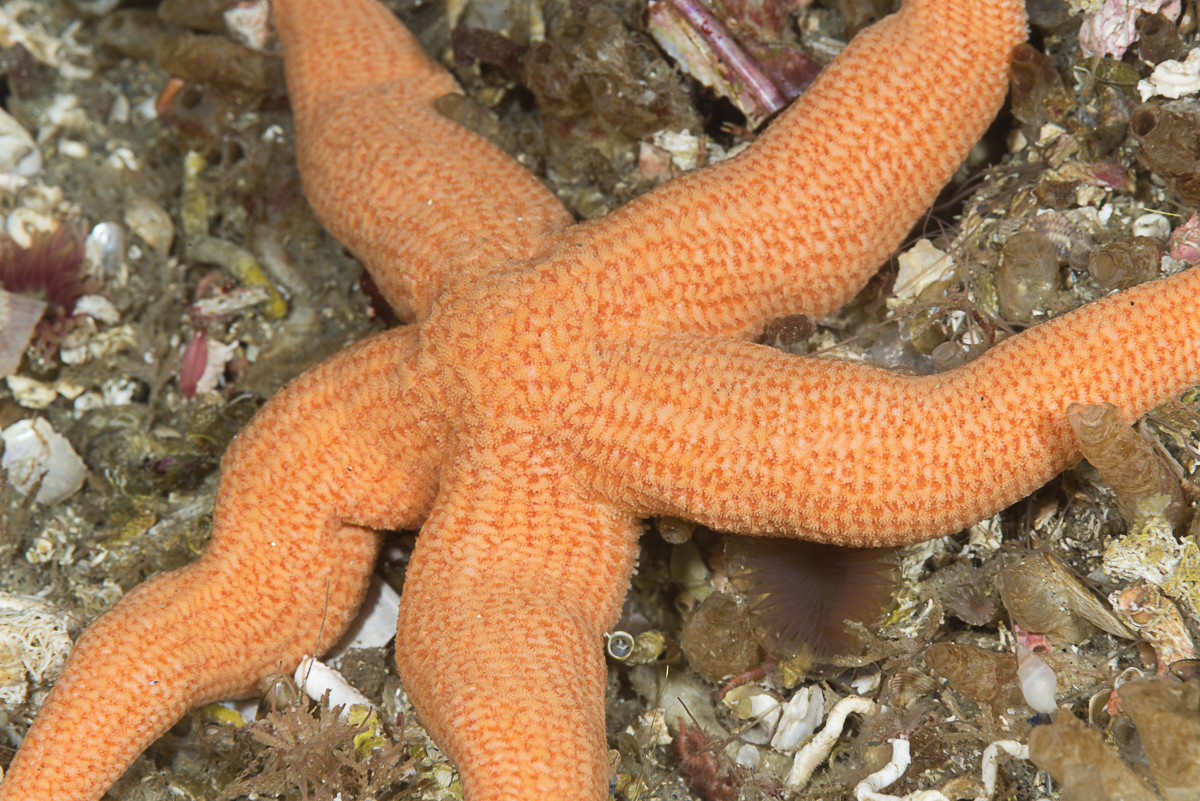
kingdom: Animalia
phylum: Echinodermata
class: Asteroidea
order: Forcipulatida
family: Stichasteridae
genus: Stichastrella
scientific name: Stichastrella rosea
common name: Rosy starfish
